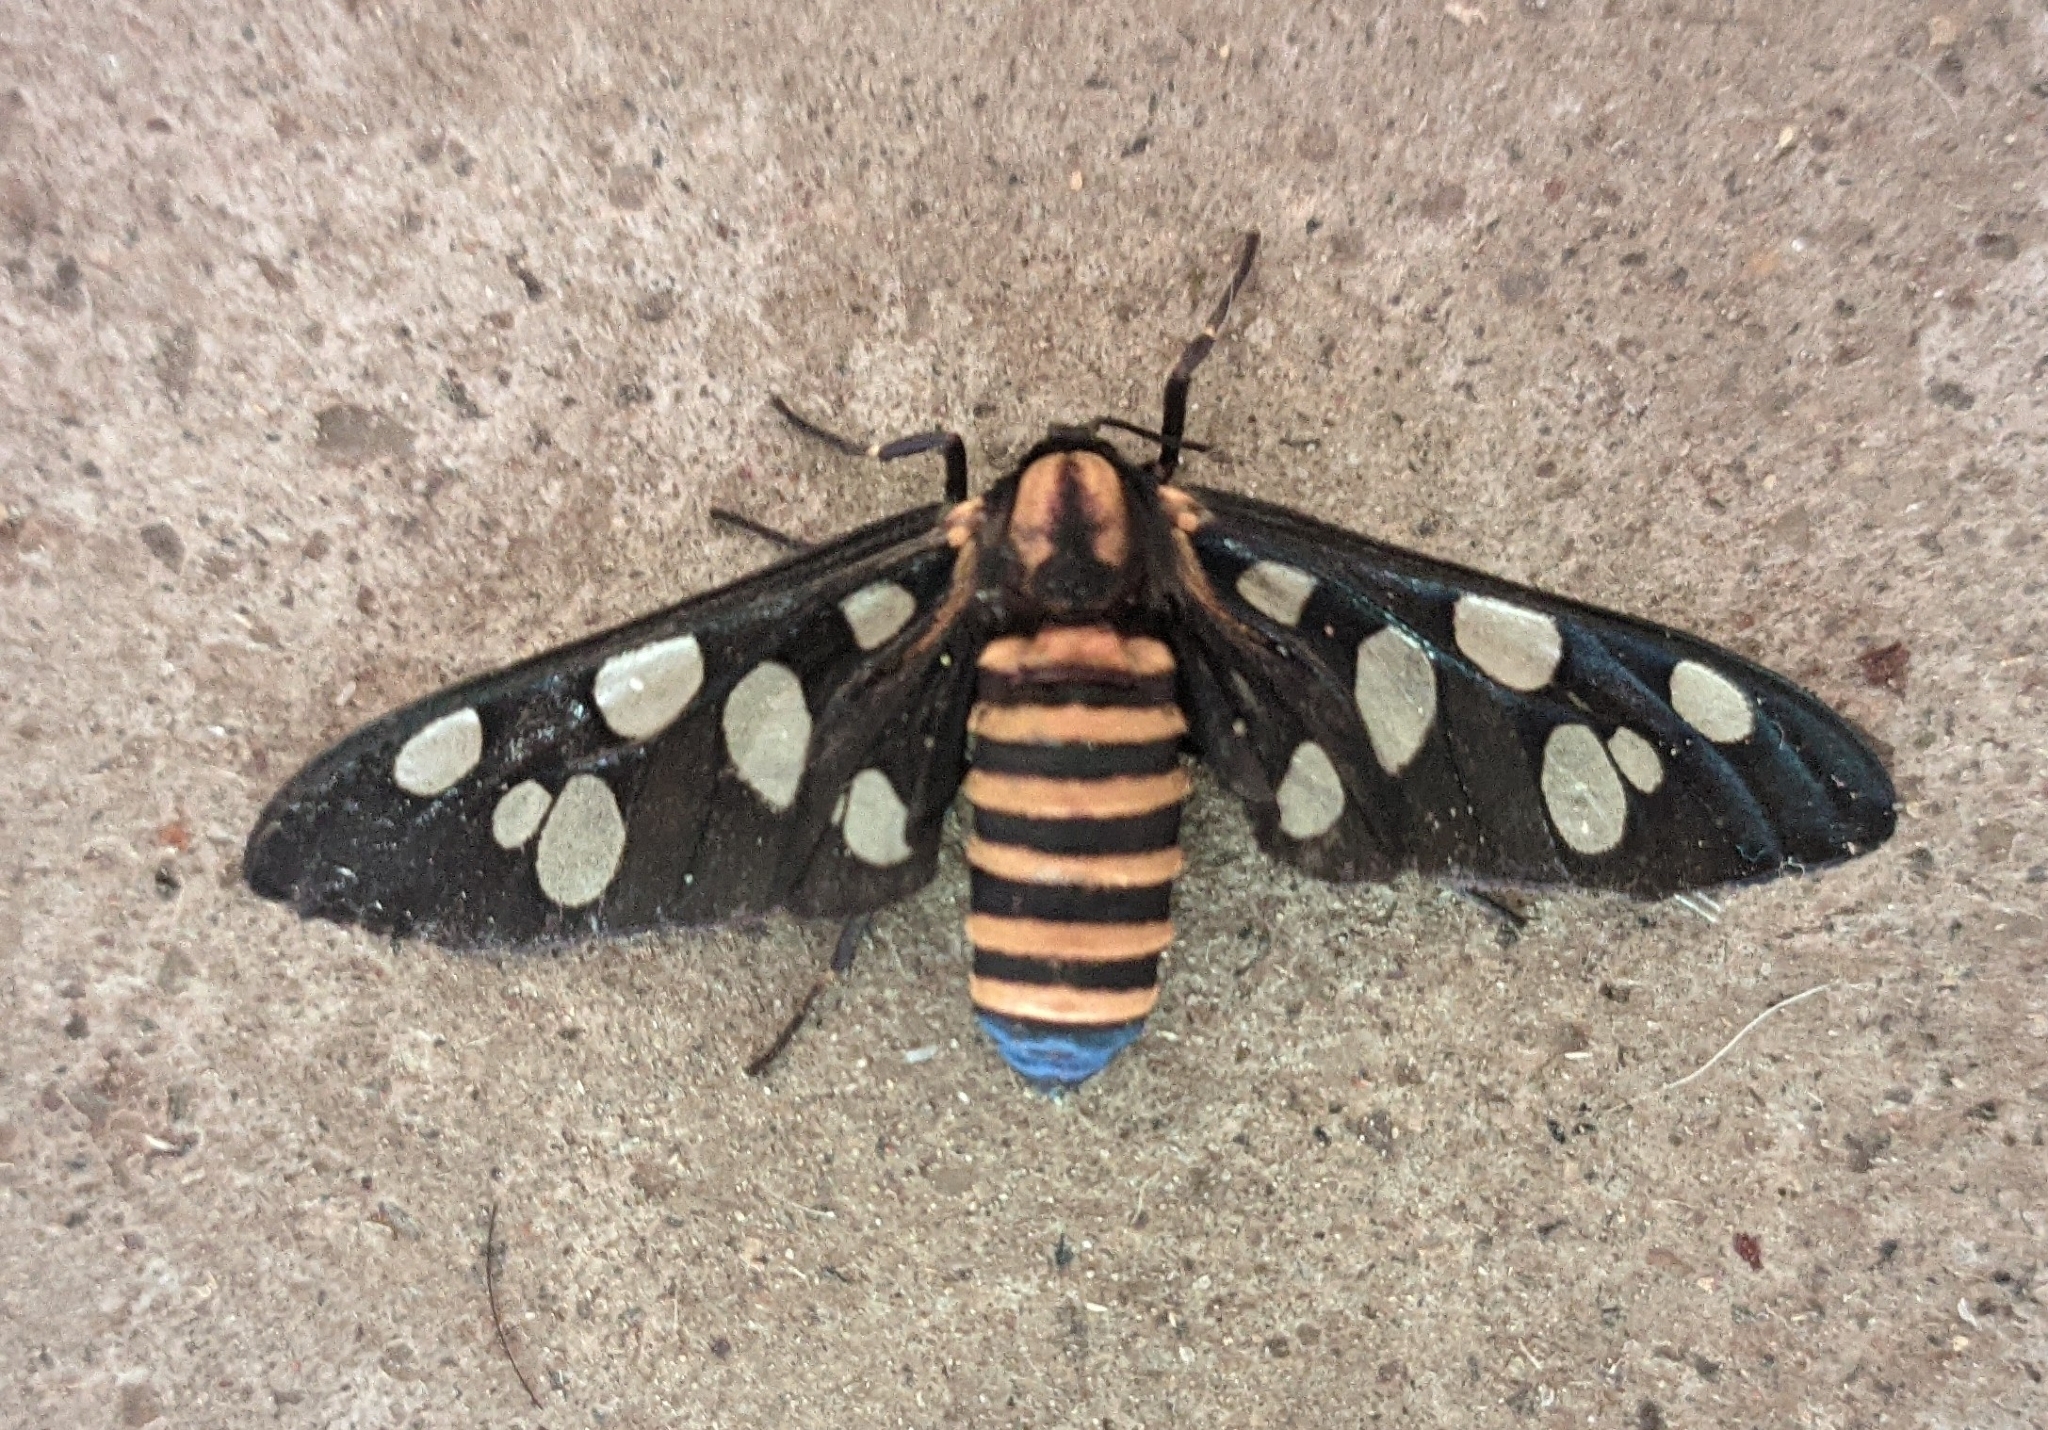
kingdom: Animalia
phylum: Arthropoda
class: Insecta
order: Lepidoptera
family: Erebidae
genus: Amata
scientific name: Amata passalis
